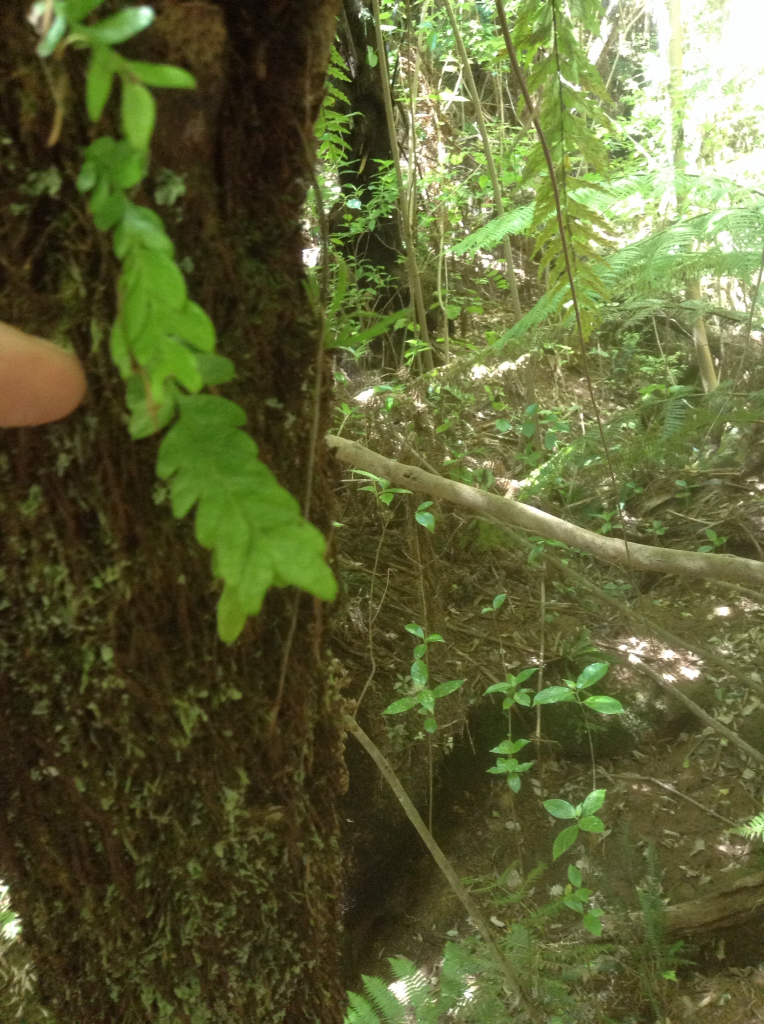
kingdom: Plantae
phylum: Tracheophyta
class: Polypodiopsida
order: Psilotales
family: Psilotaceae
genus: Tmesipteris
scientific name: Tmesipteris lanceolata
